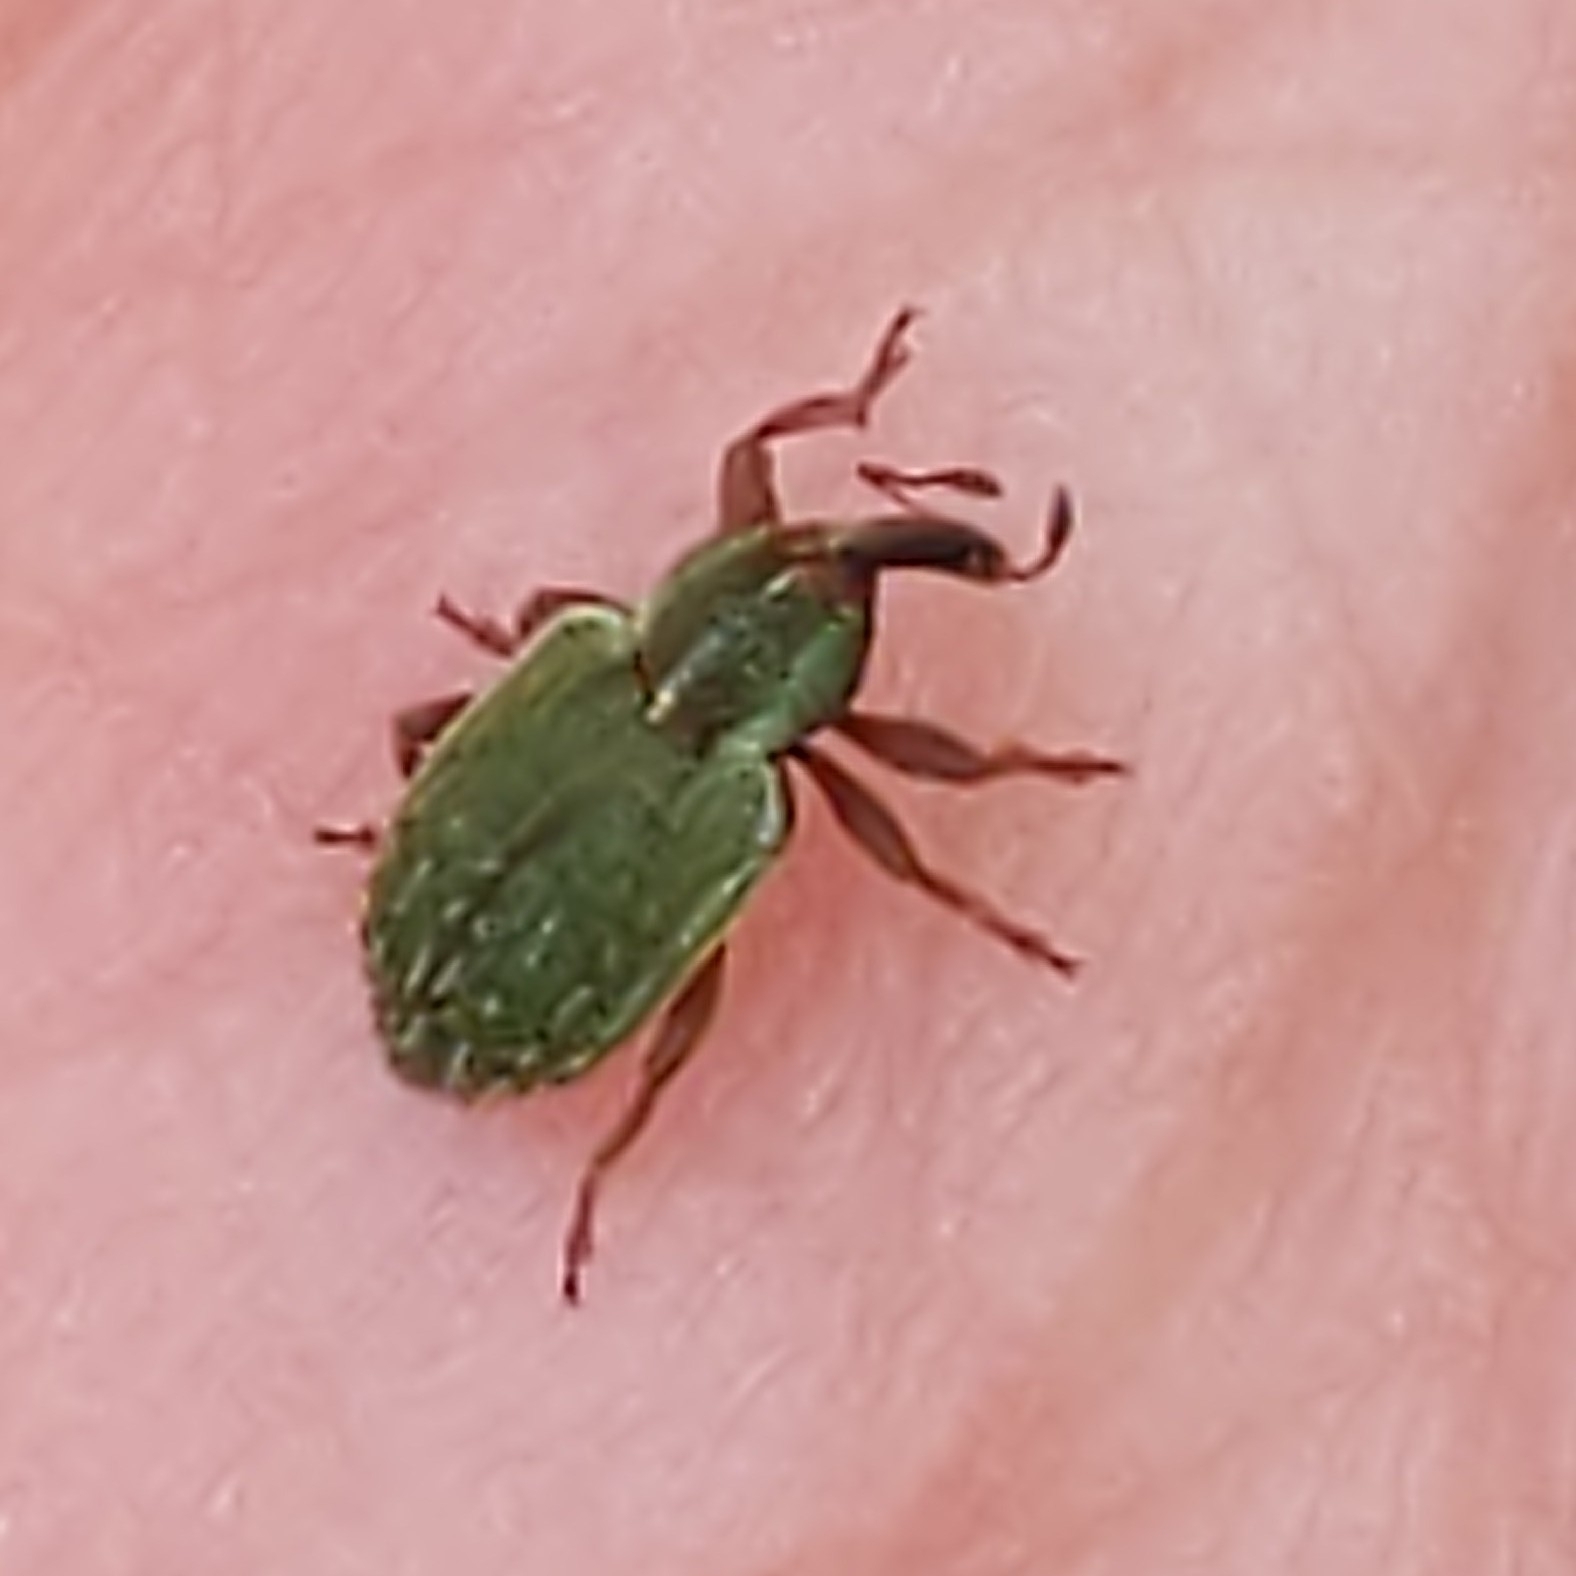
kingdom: Animalia
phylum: Arthropoda
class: Insecta
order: Coleoptera
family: Curculionidae
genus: Hypera
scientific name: Hypera nigrirostris
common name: Black-beaked green weevil
